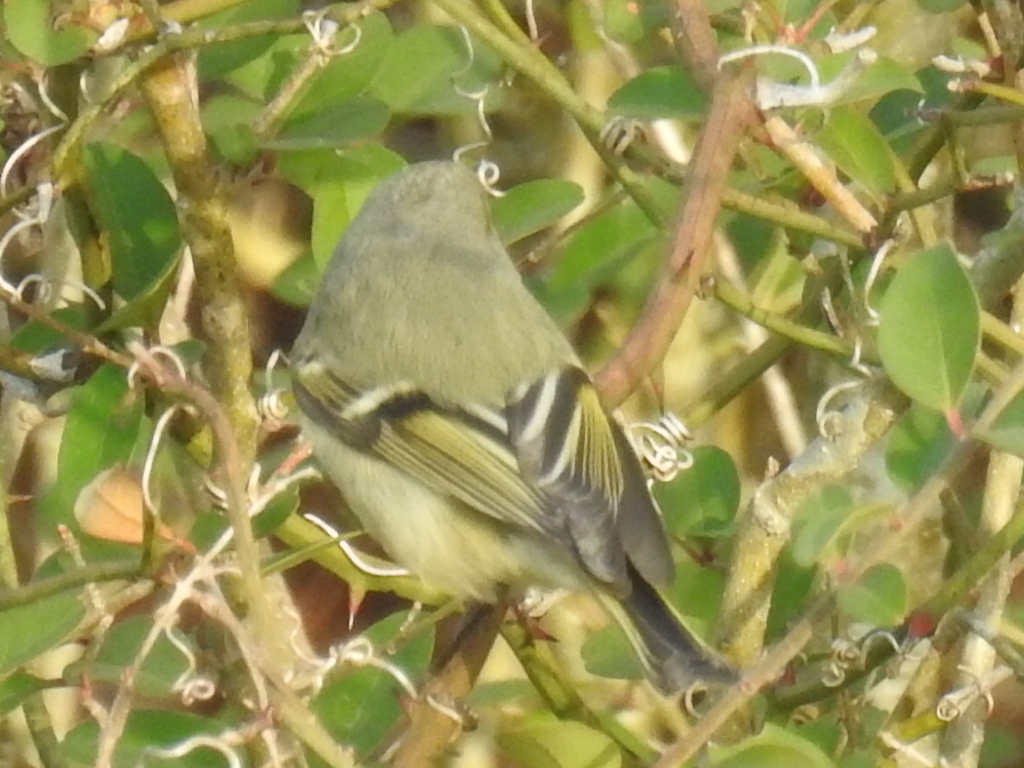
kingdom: Animalia
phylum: Chordata
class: Aves
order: Passeriformes
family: Regulidae
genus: Regulus
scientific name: Regulus calendula
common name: Ruby-crowned kinglet
